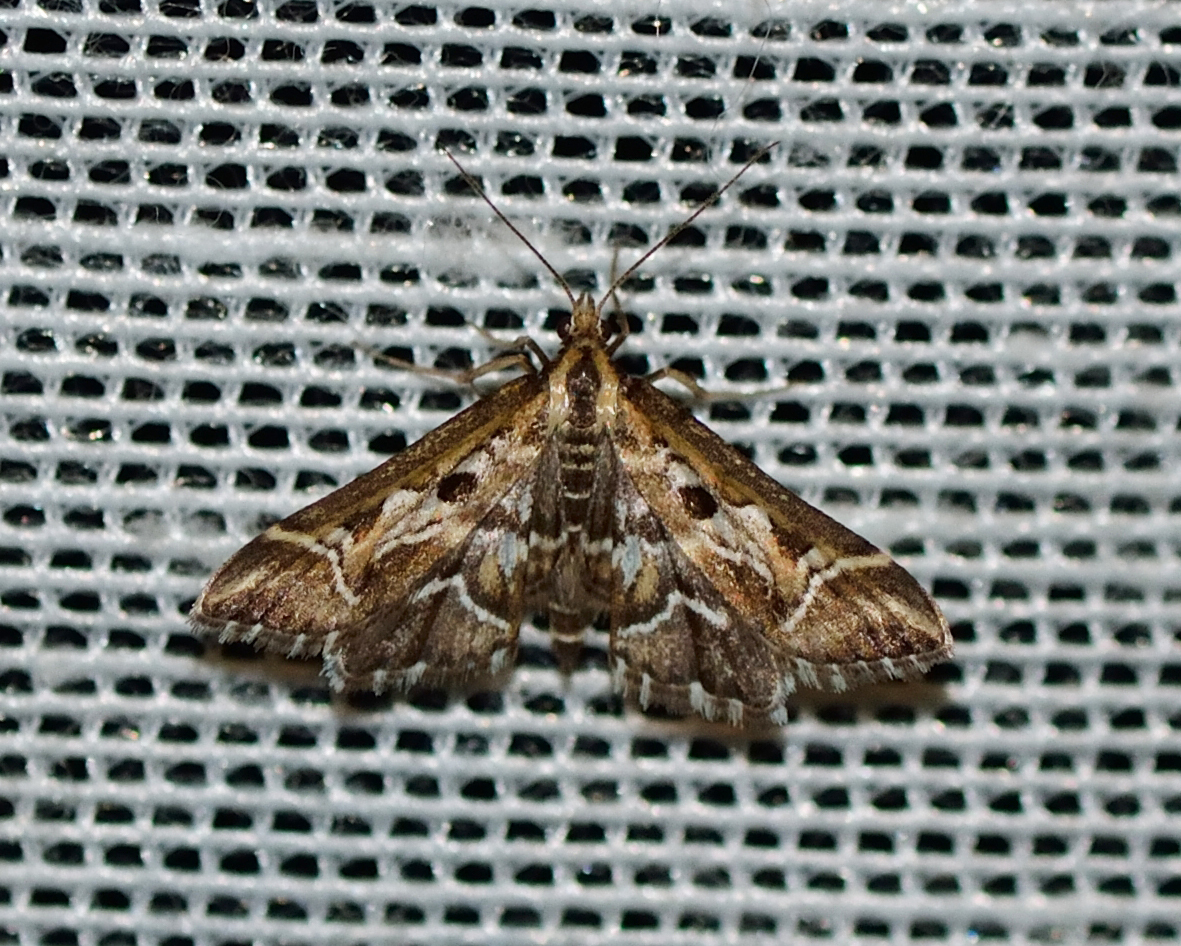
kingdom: Animalia
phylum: Arthropoda
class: Insecta
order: Lepidoptera
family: Crambidae
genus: Diasemia
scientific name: Diasemia reticularis
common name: Lettered china-mark
